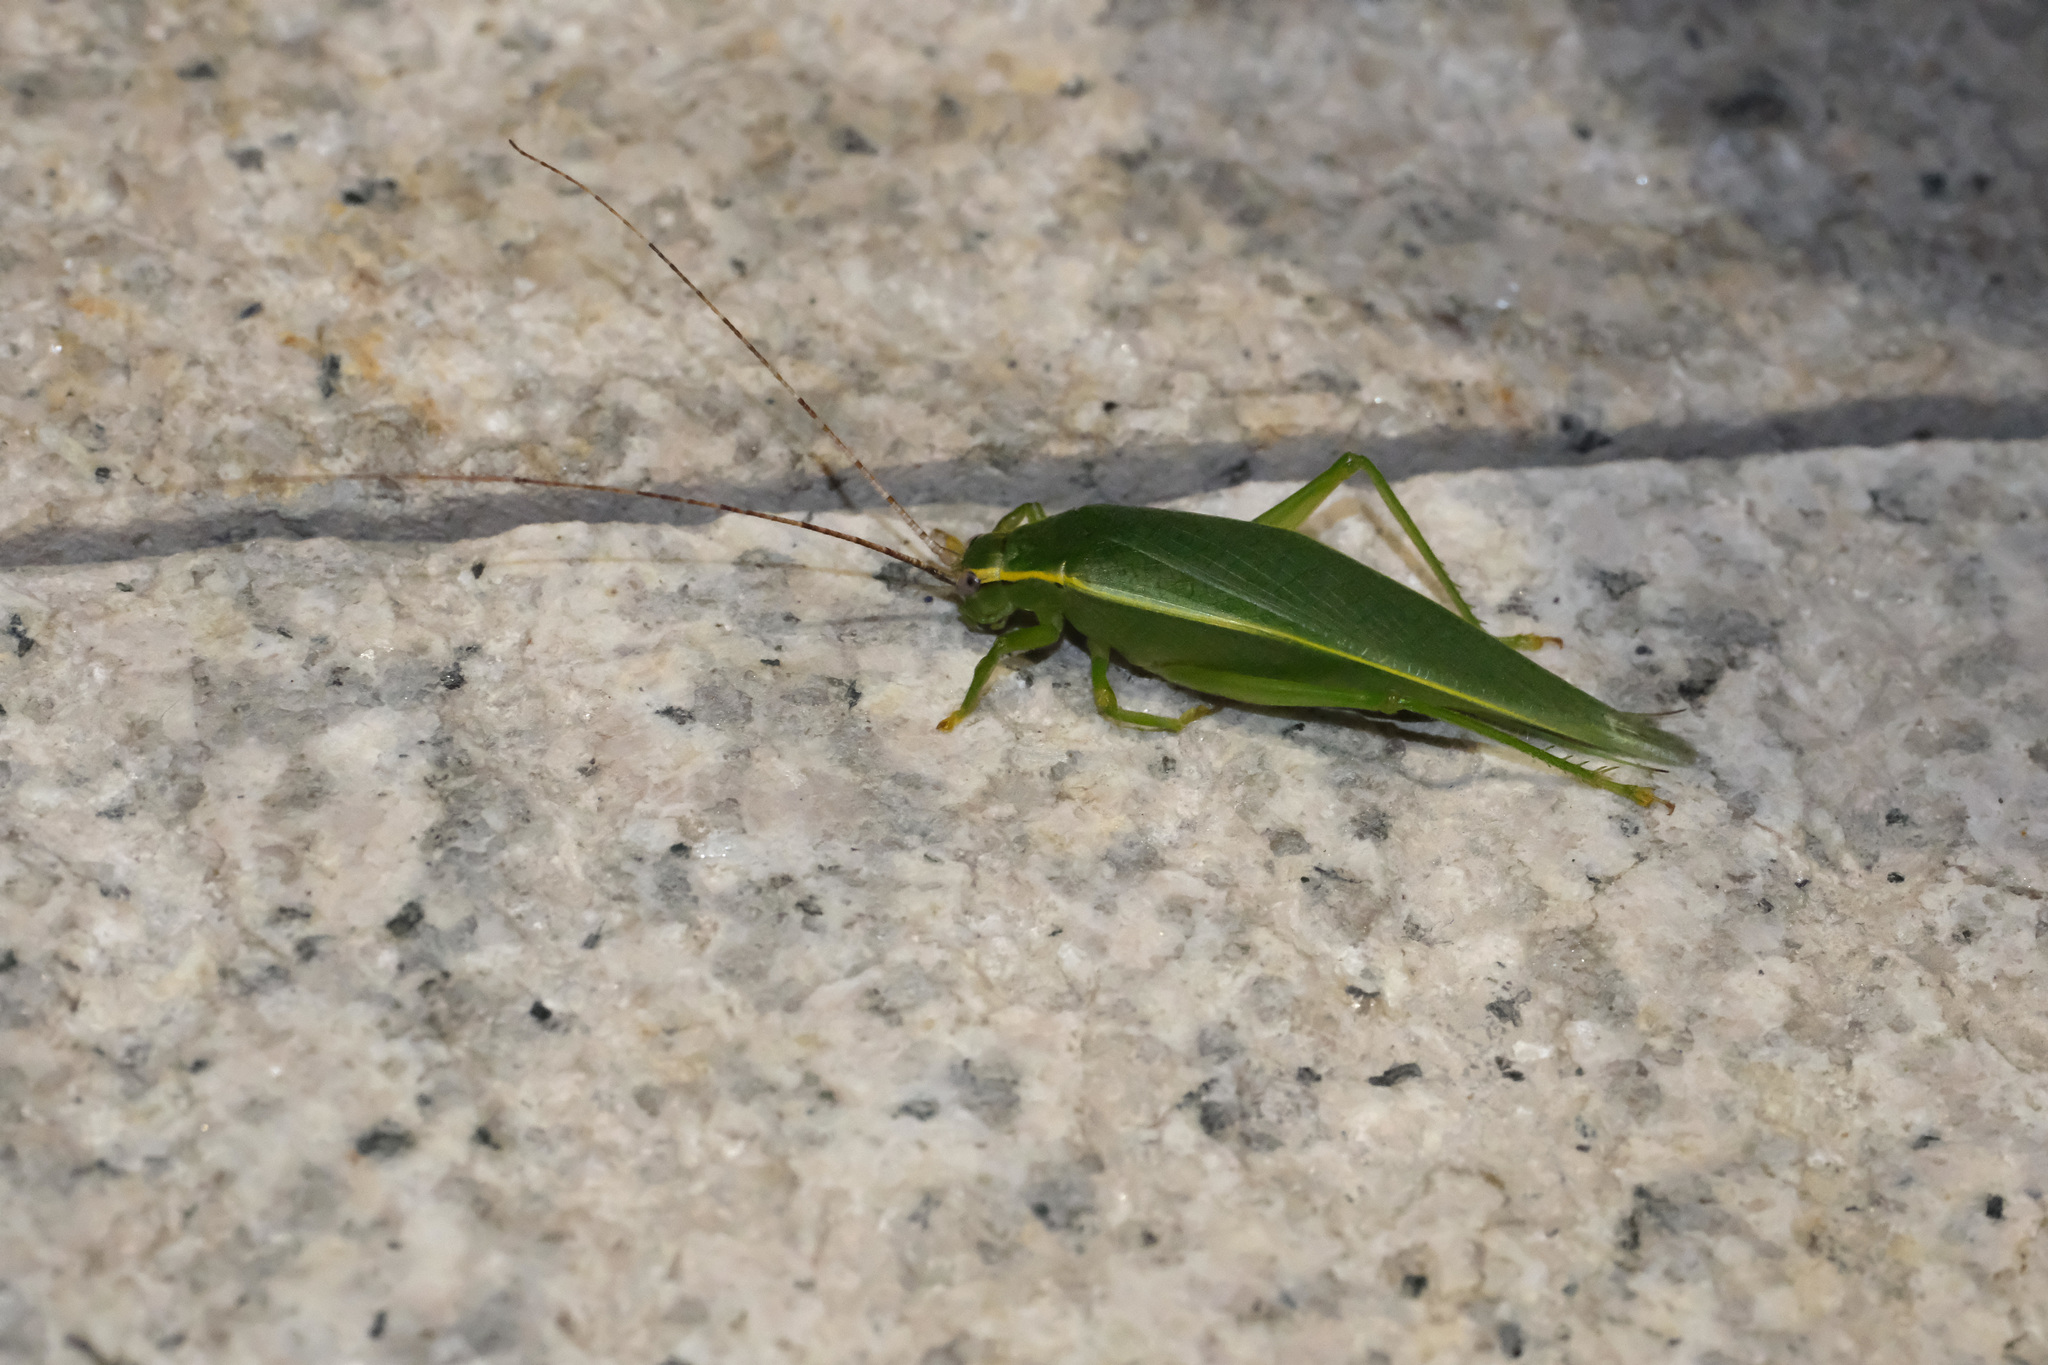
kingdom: Animalia
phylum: Arthropoda
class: Insecta
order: Orthoptera
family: Gryllidae
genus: Truljalia
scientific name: Truljalia hibinonis
